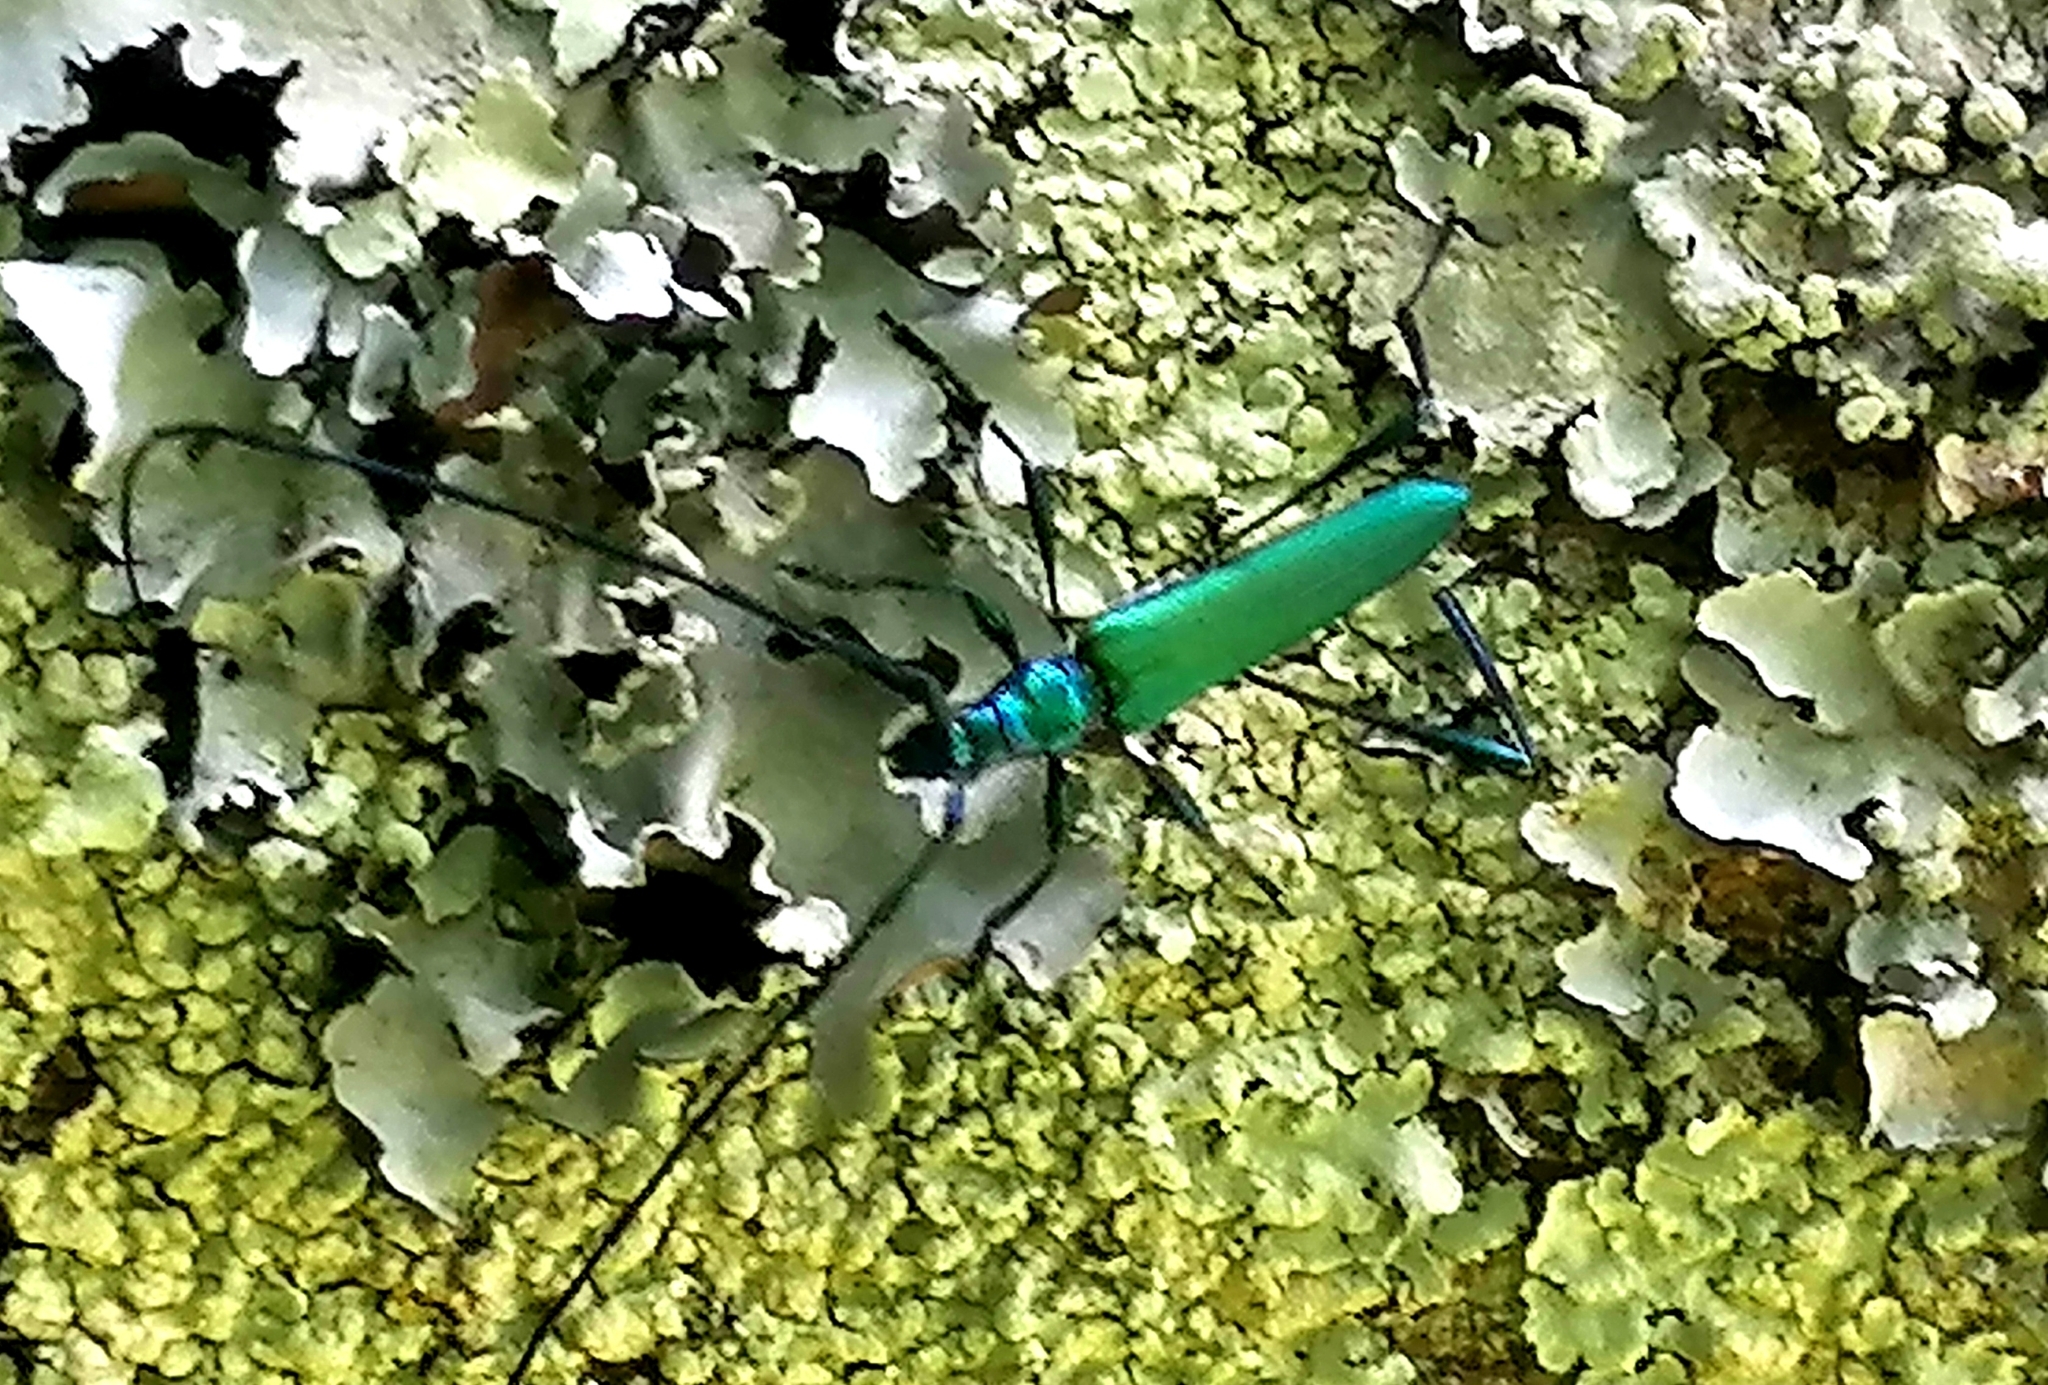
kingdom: Animalia
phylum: Arthropoda
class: Insecta
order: Coleoptera
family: Cerambycidae
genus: Promeces
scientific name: Promeces longipes
